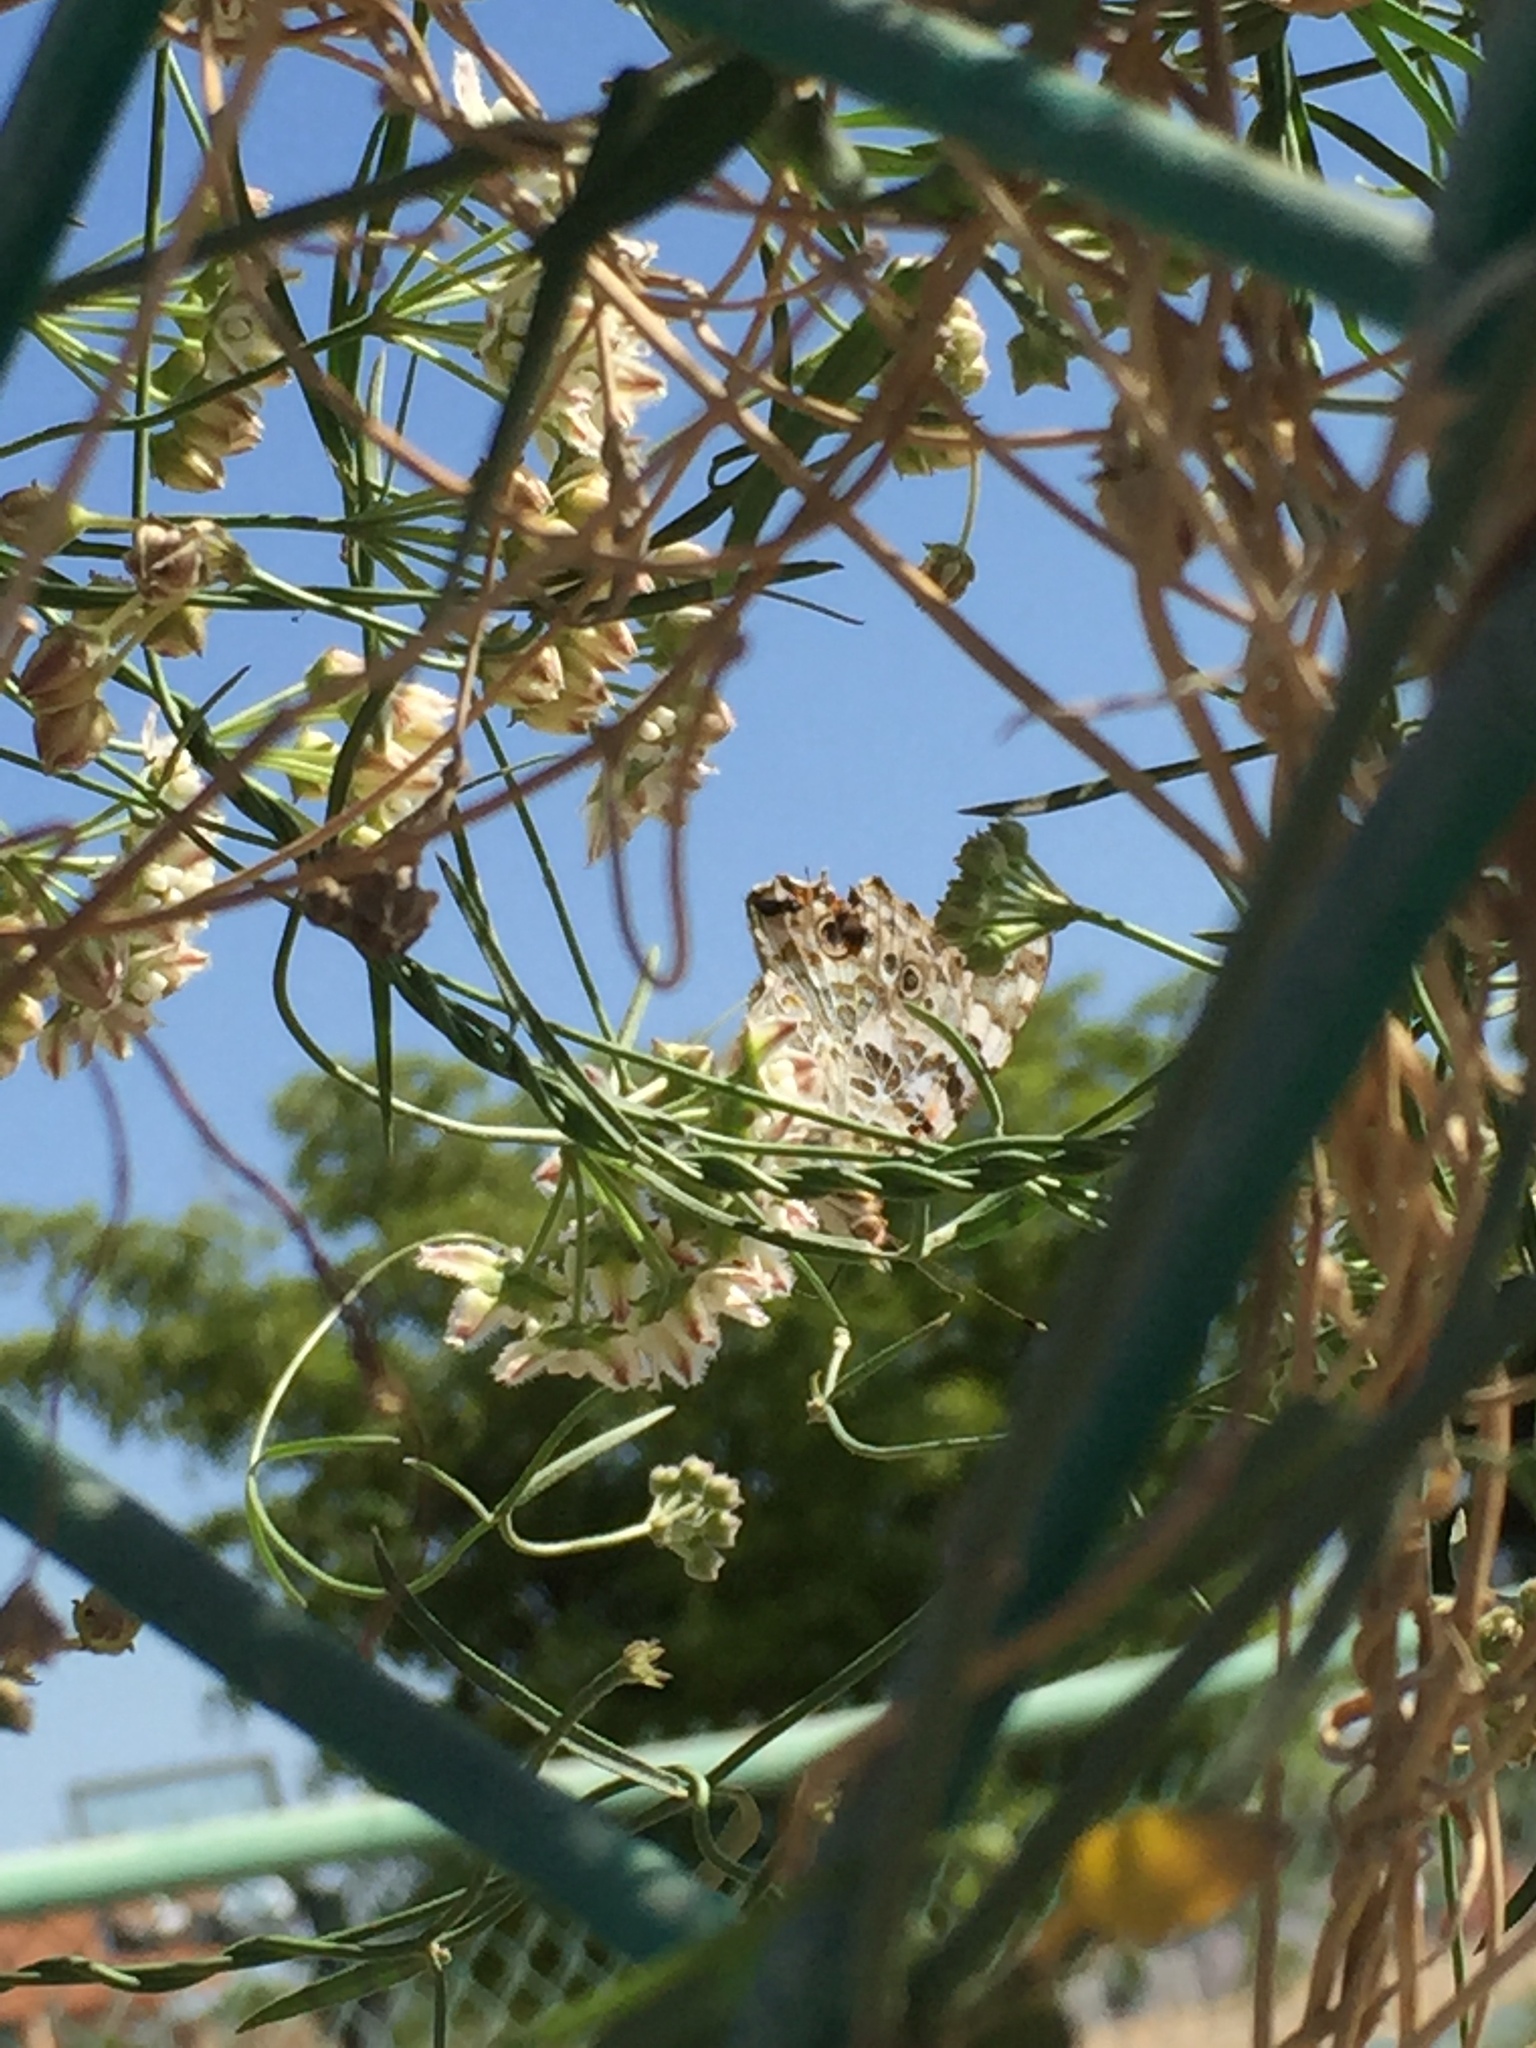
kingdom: Animalia
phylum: Arthropoda
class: Insecta
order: Lepidoptera
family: Nymphalidae
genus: Vanessa
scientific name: Vanessa cardui
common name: Painted lady
